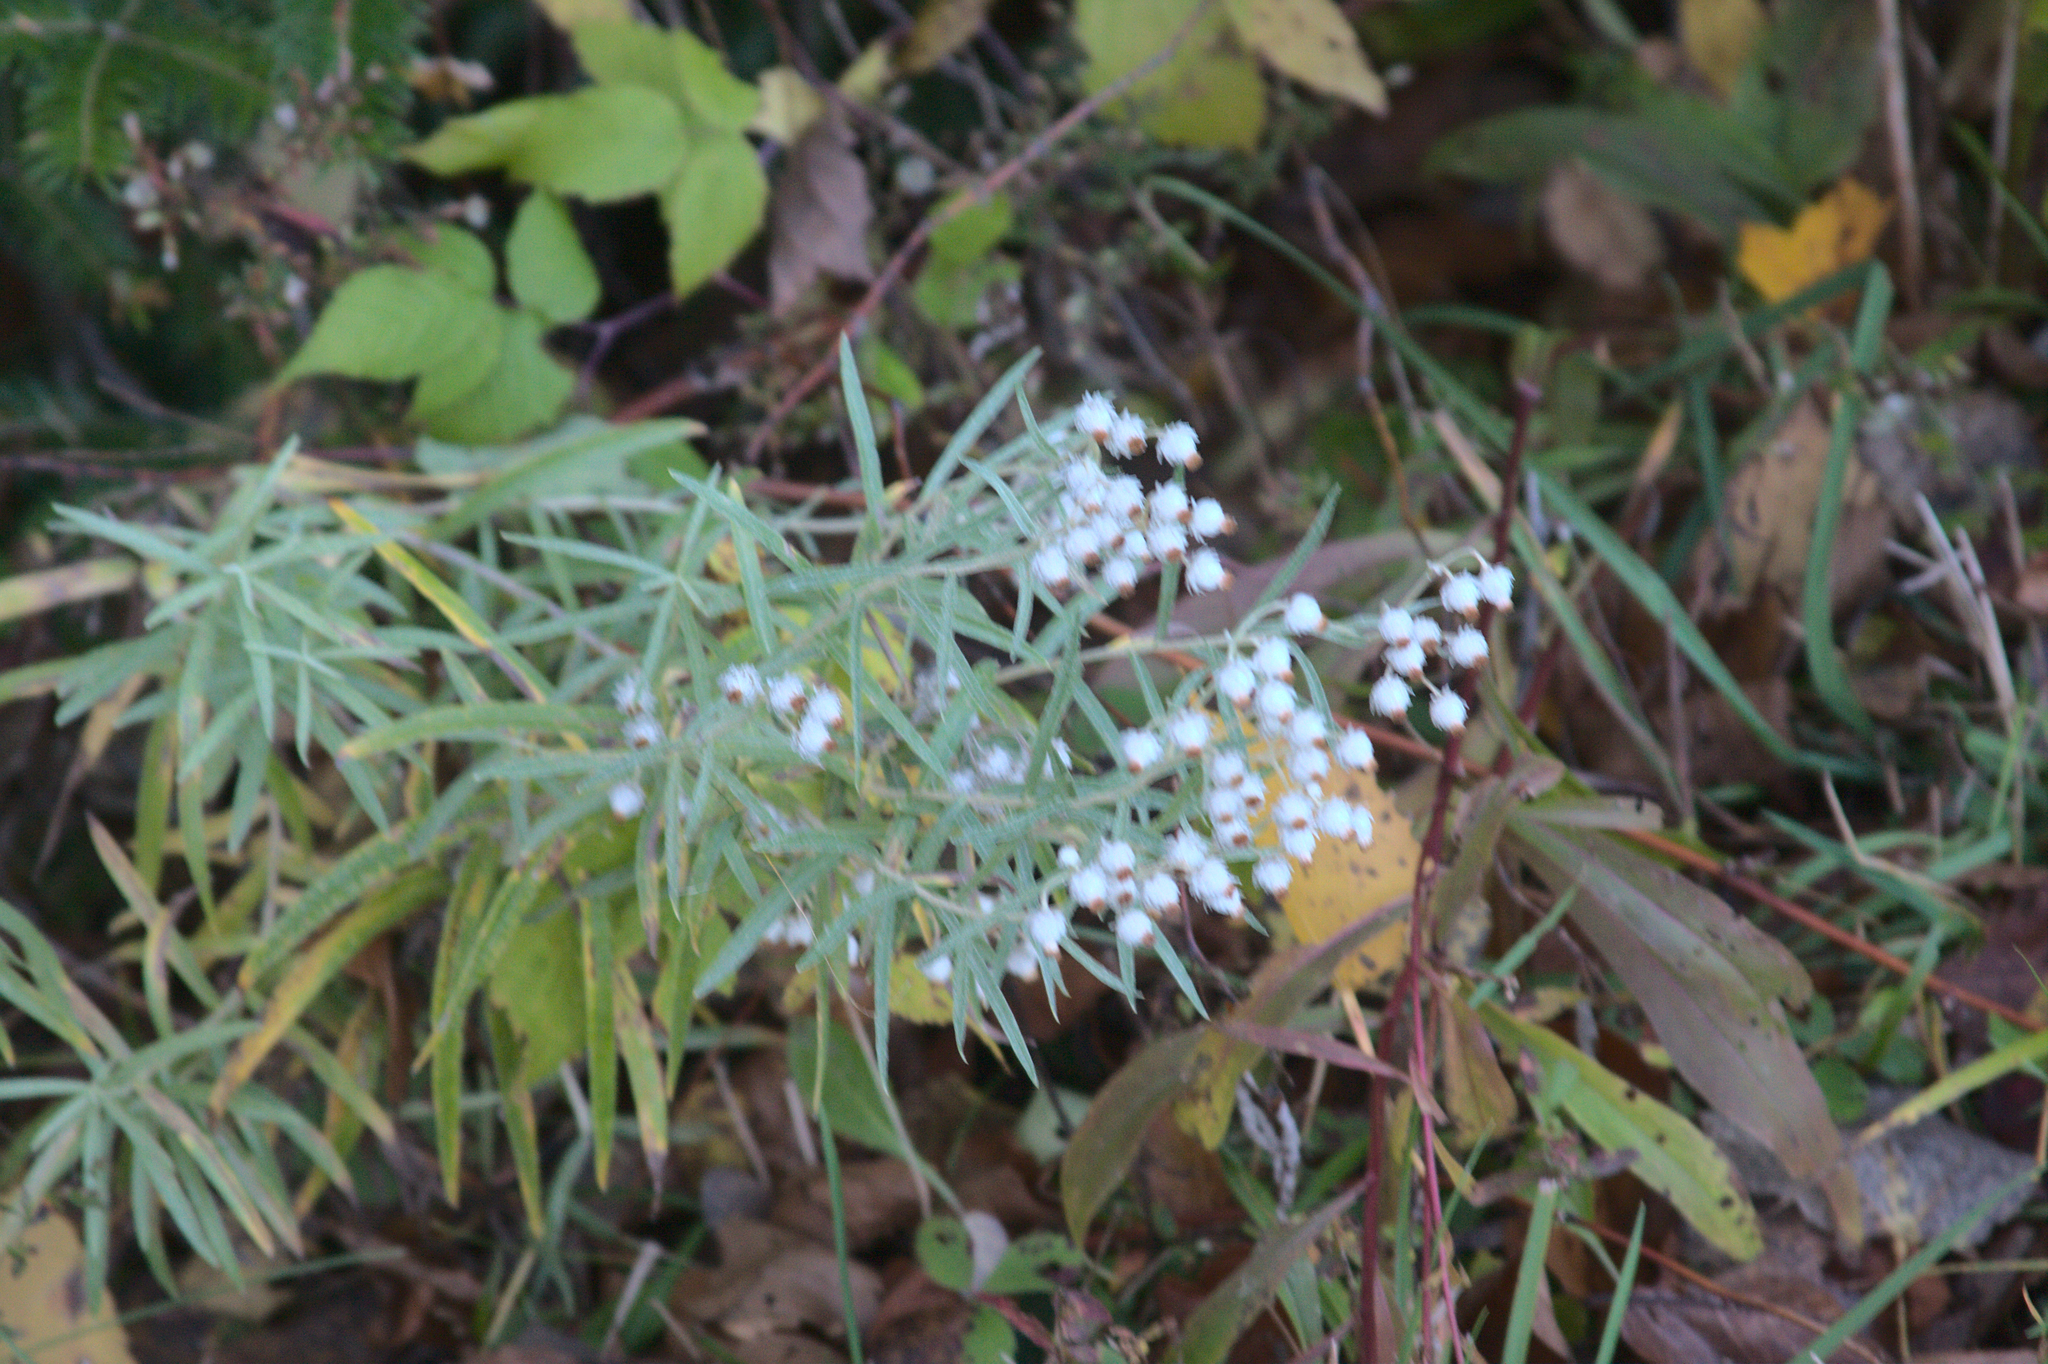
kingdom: Plantae
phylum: Tracheophyta
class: Magnoliopsida
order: Asterales
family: Asteraceae
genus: Anaphalis
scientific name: Anaphalis margaritacea
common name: Pearly everlasting
